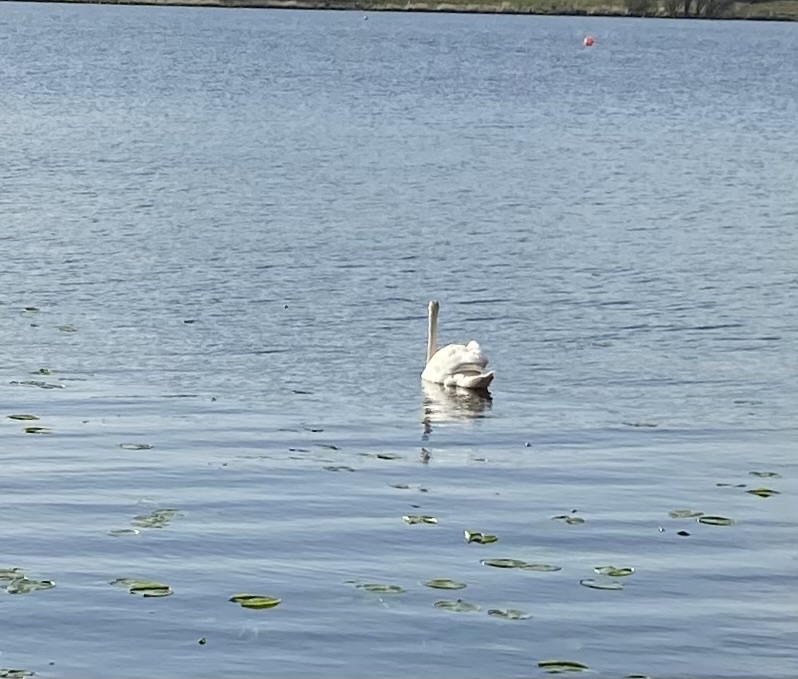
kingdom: Animalia
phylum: Chordata
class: Aves
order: Anseriformes
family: Anatidae
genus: Cygnus
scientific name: Cygnus olor
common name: Mute swan
